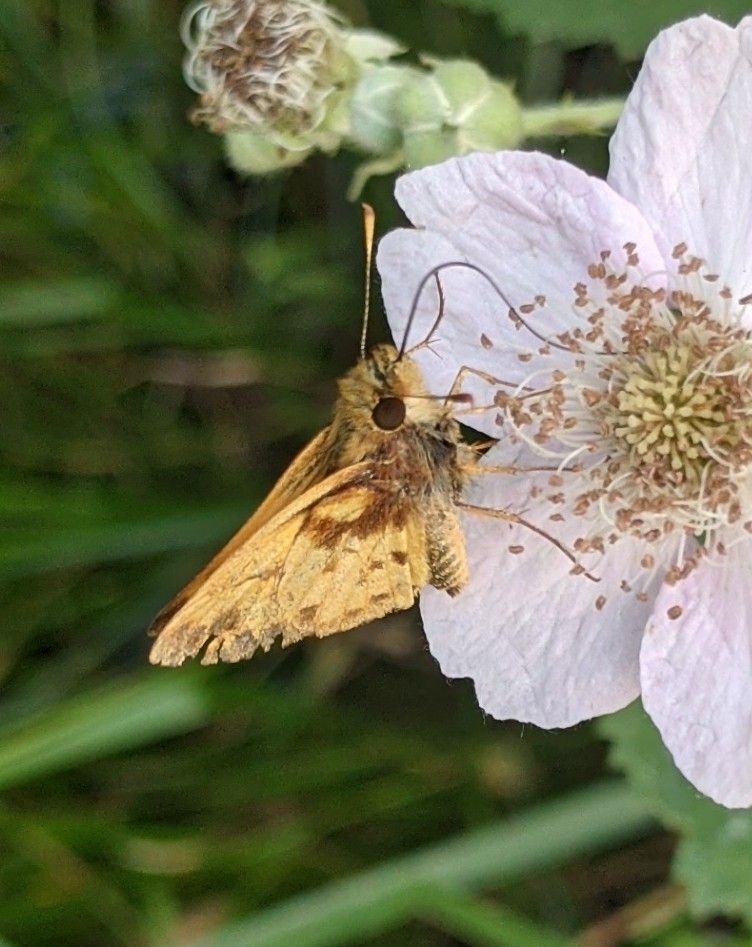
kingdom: Animalia
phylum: Arthropoda
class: Insecta
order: Lepidoptera
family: Hesperiidae
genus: Lon
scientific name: Lon zabulon
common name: Zabulon skipper
